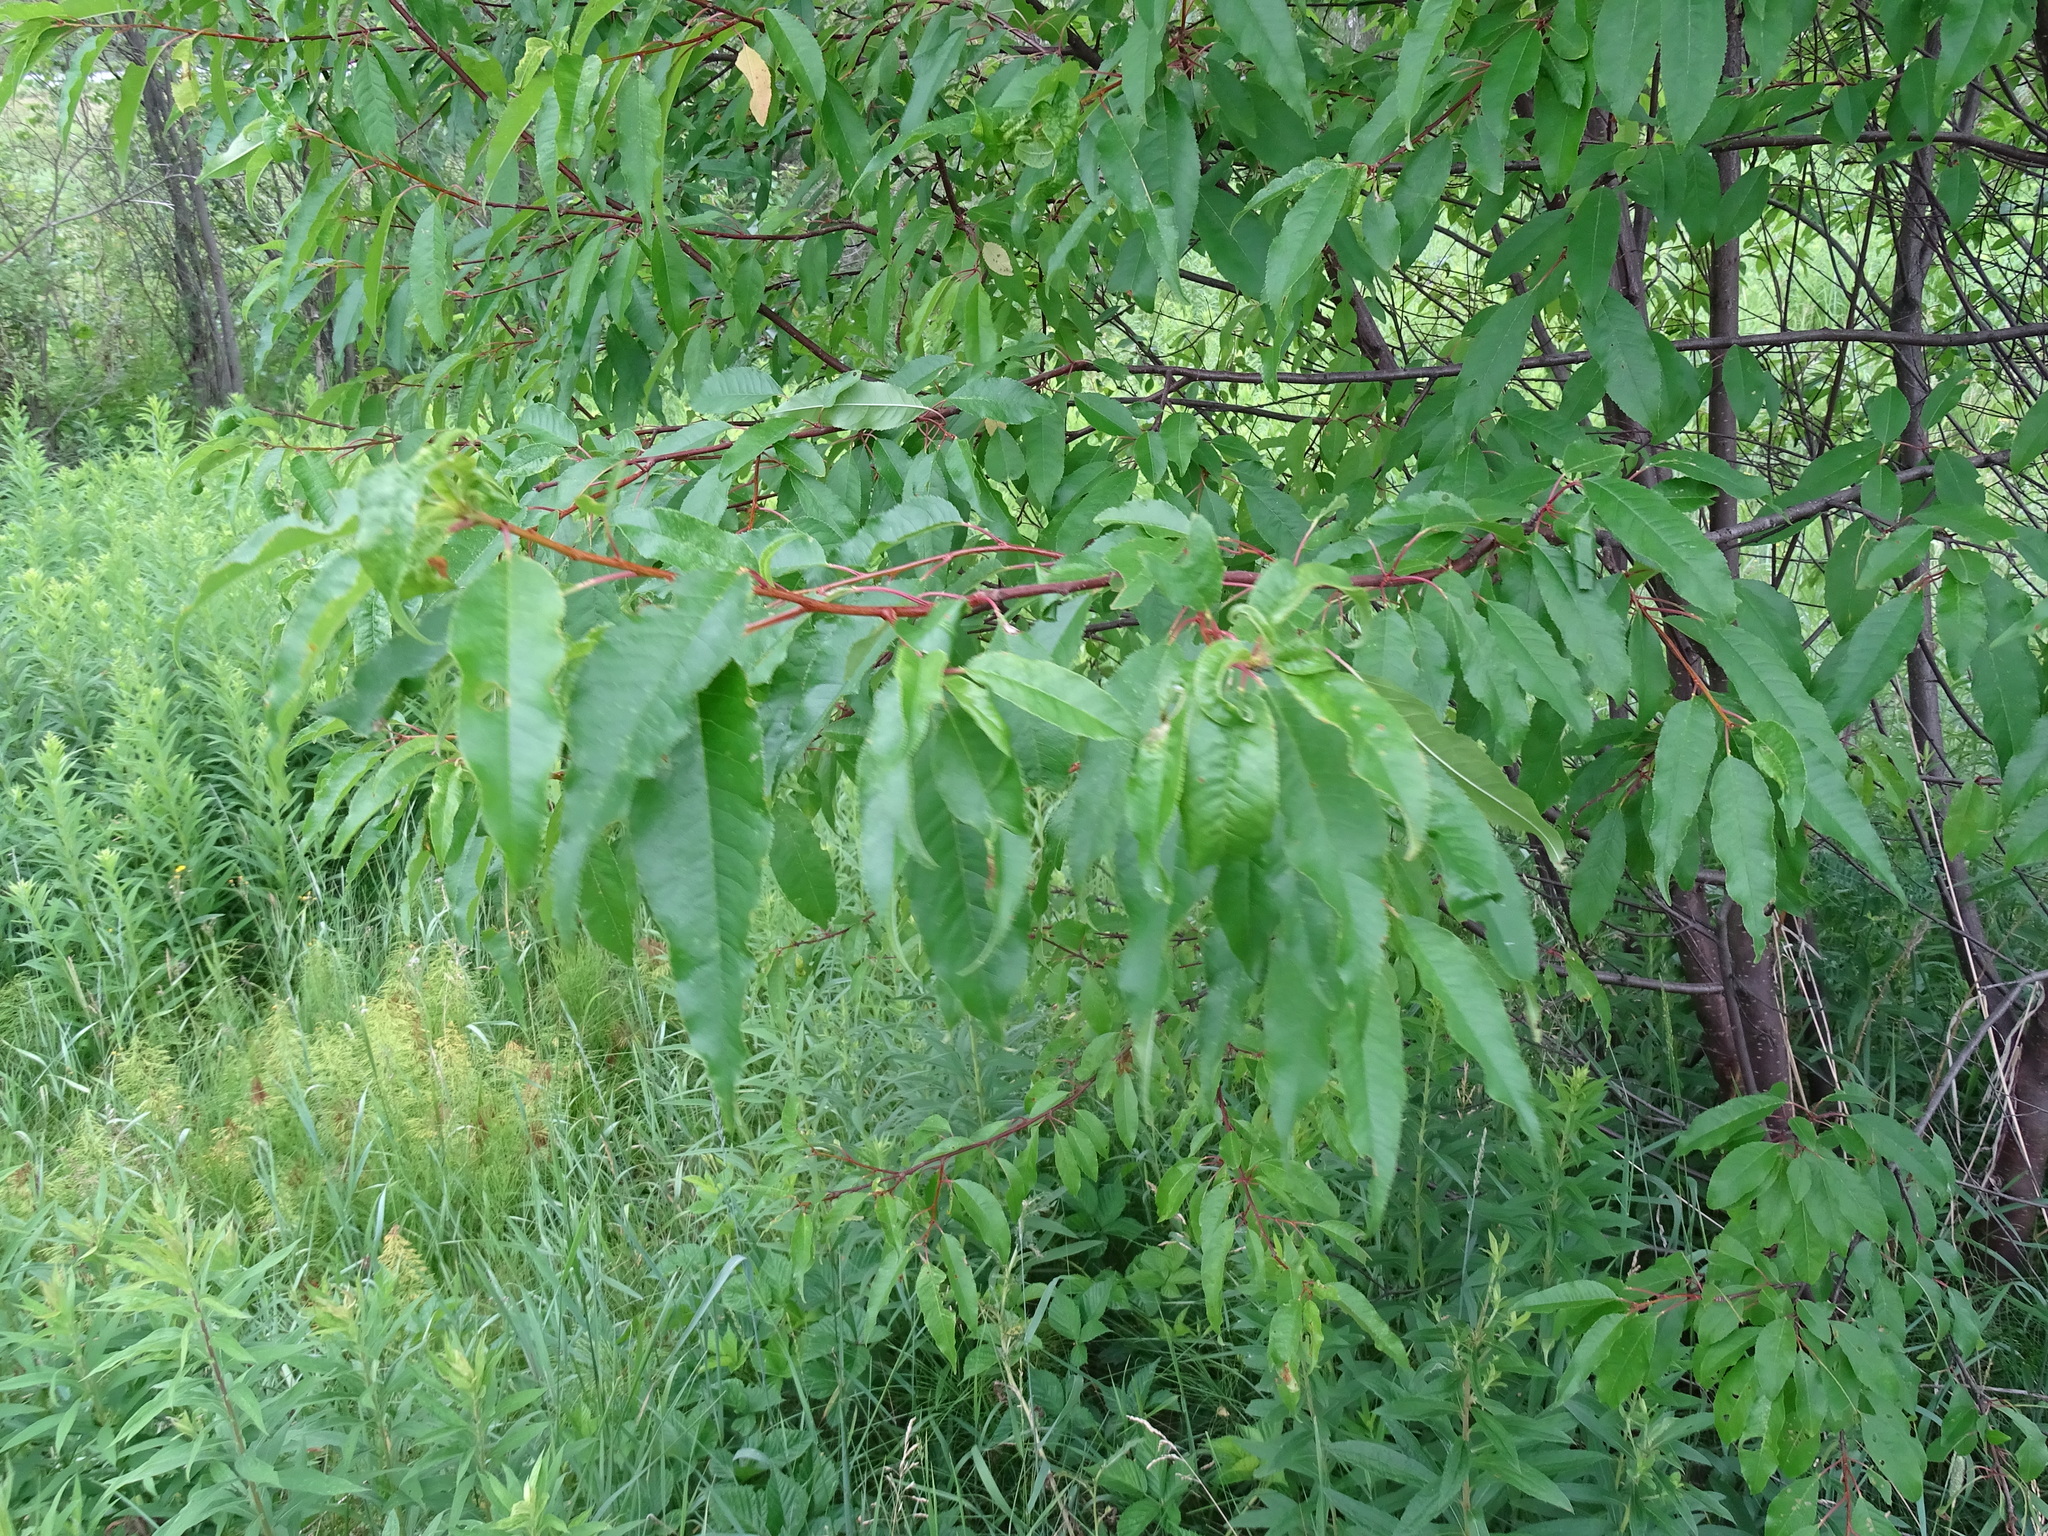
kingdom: Plantae
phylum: Tracheophyta
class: Magnoliopsida
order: Rosales
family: Rosaceae
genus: Prunus
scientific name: Prunus pensylvanica
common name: Pin cherry
